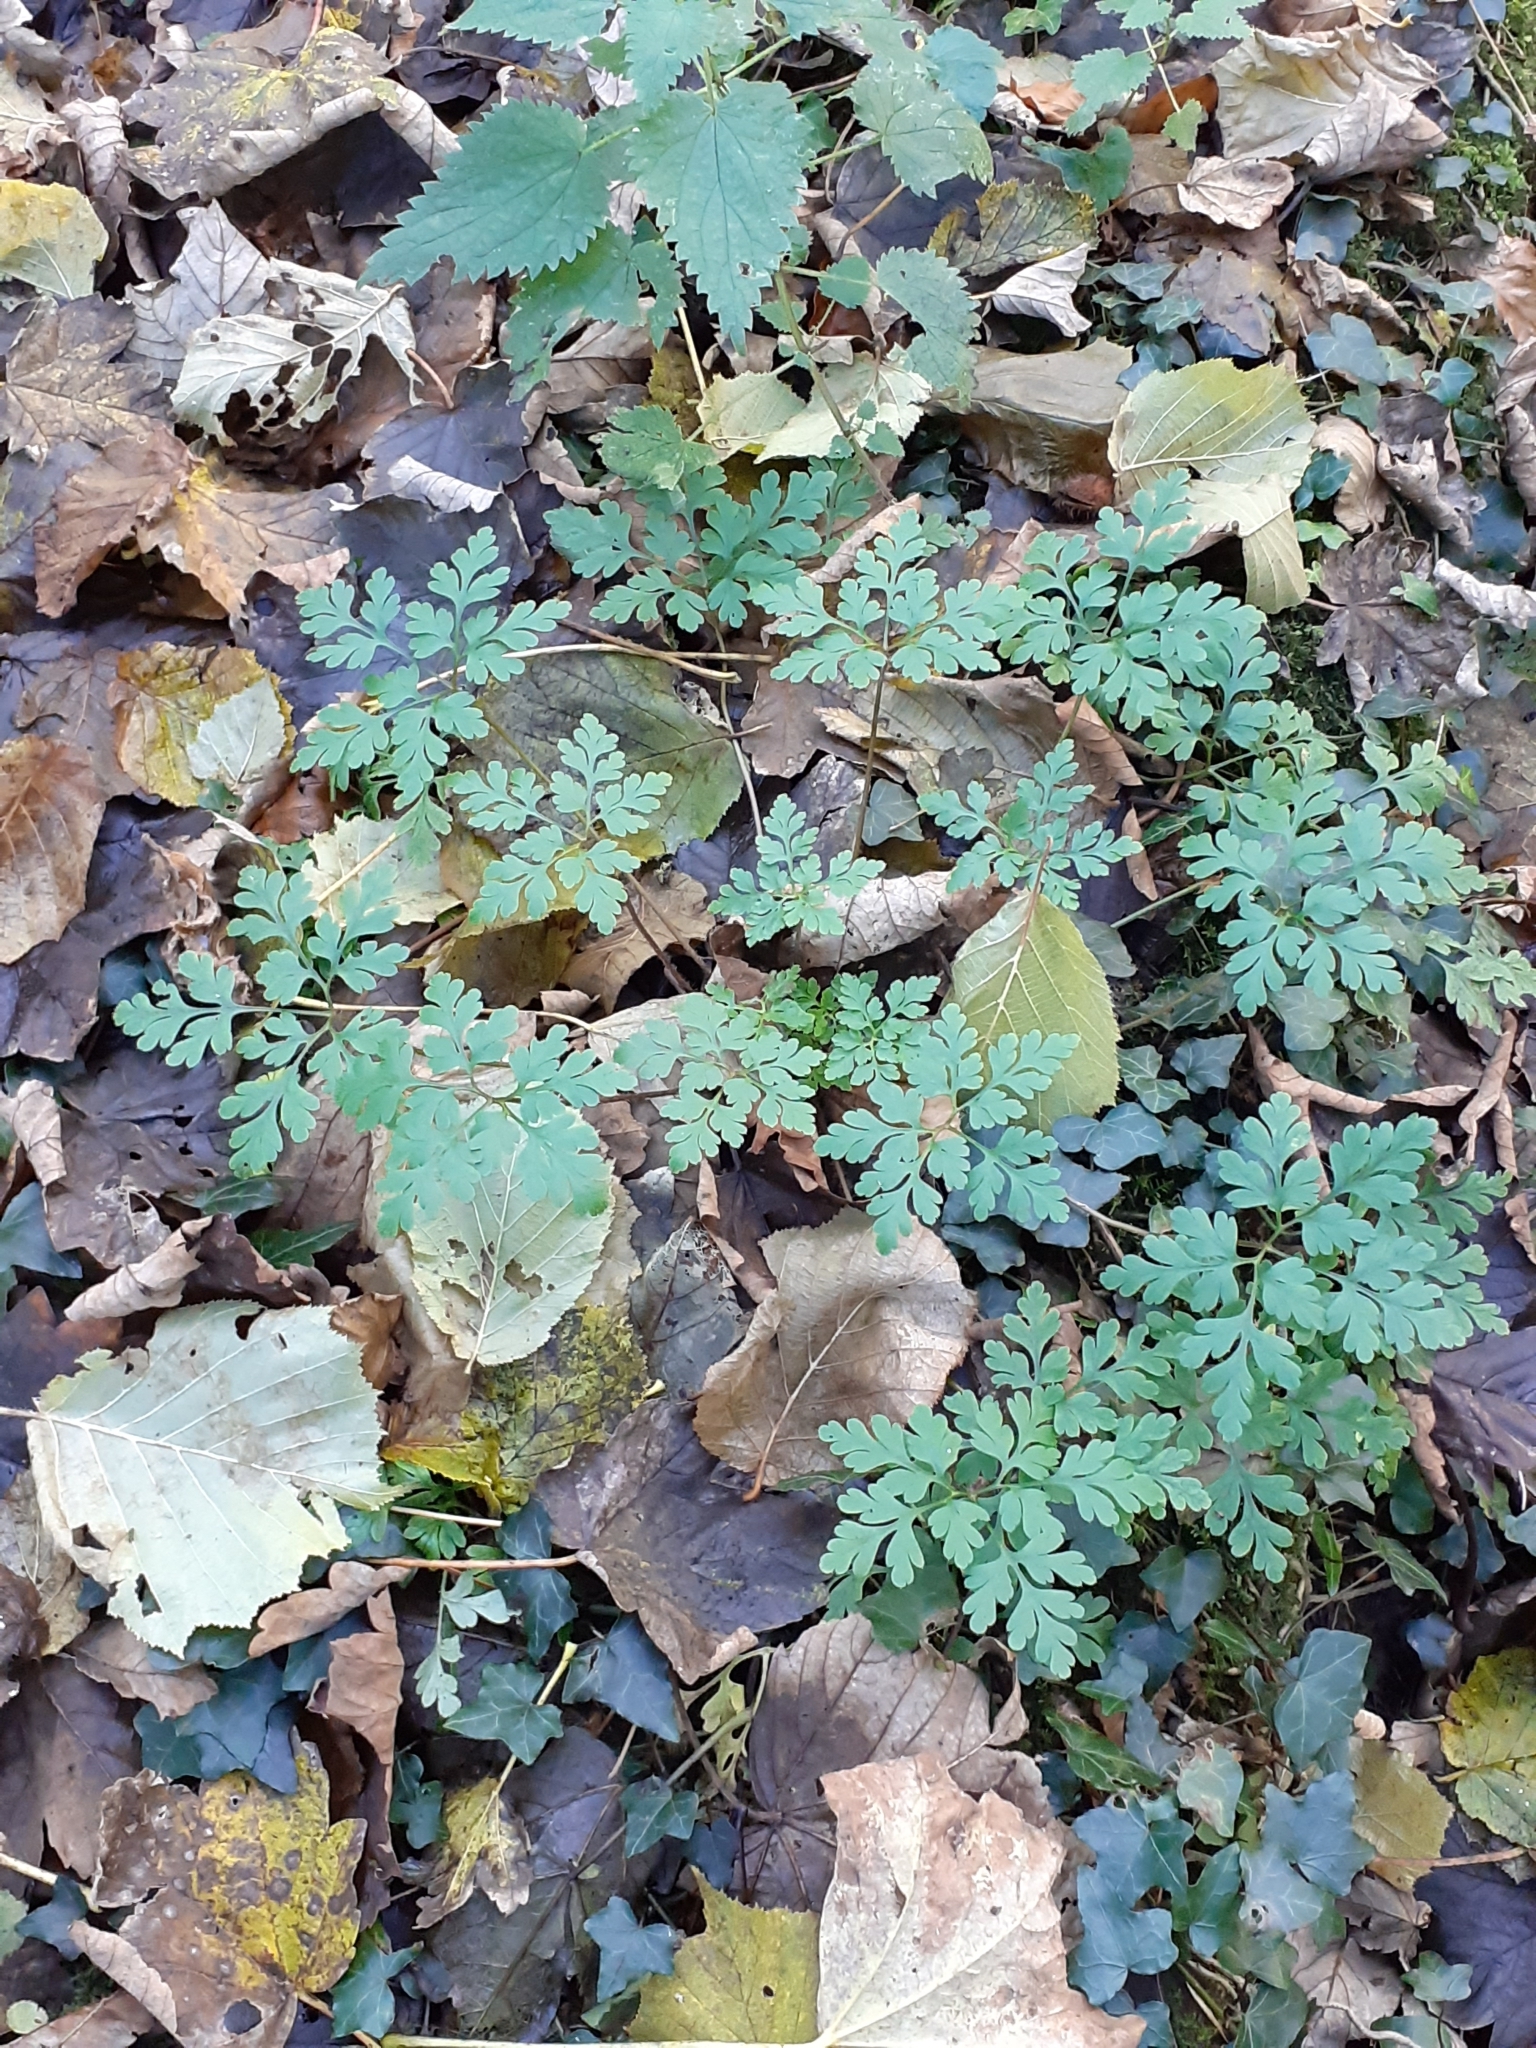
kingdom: Plantae
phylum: Tracheophyta
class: Magnoliopsida
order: Geraniales
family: Geraniaceae
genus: Geranium
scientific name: Geranium robertianum
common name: Herb-robert
